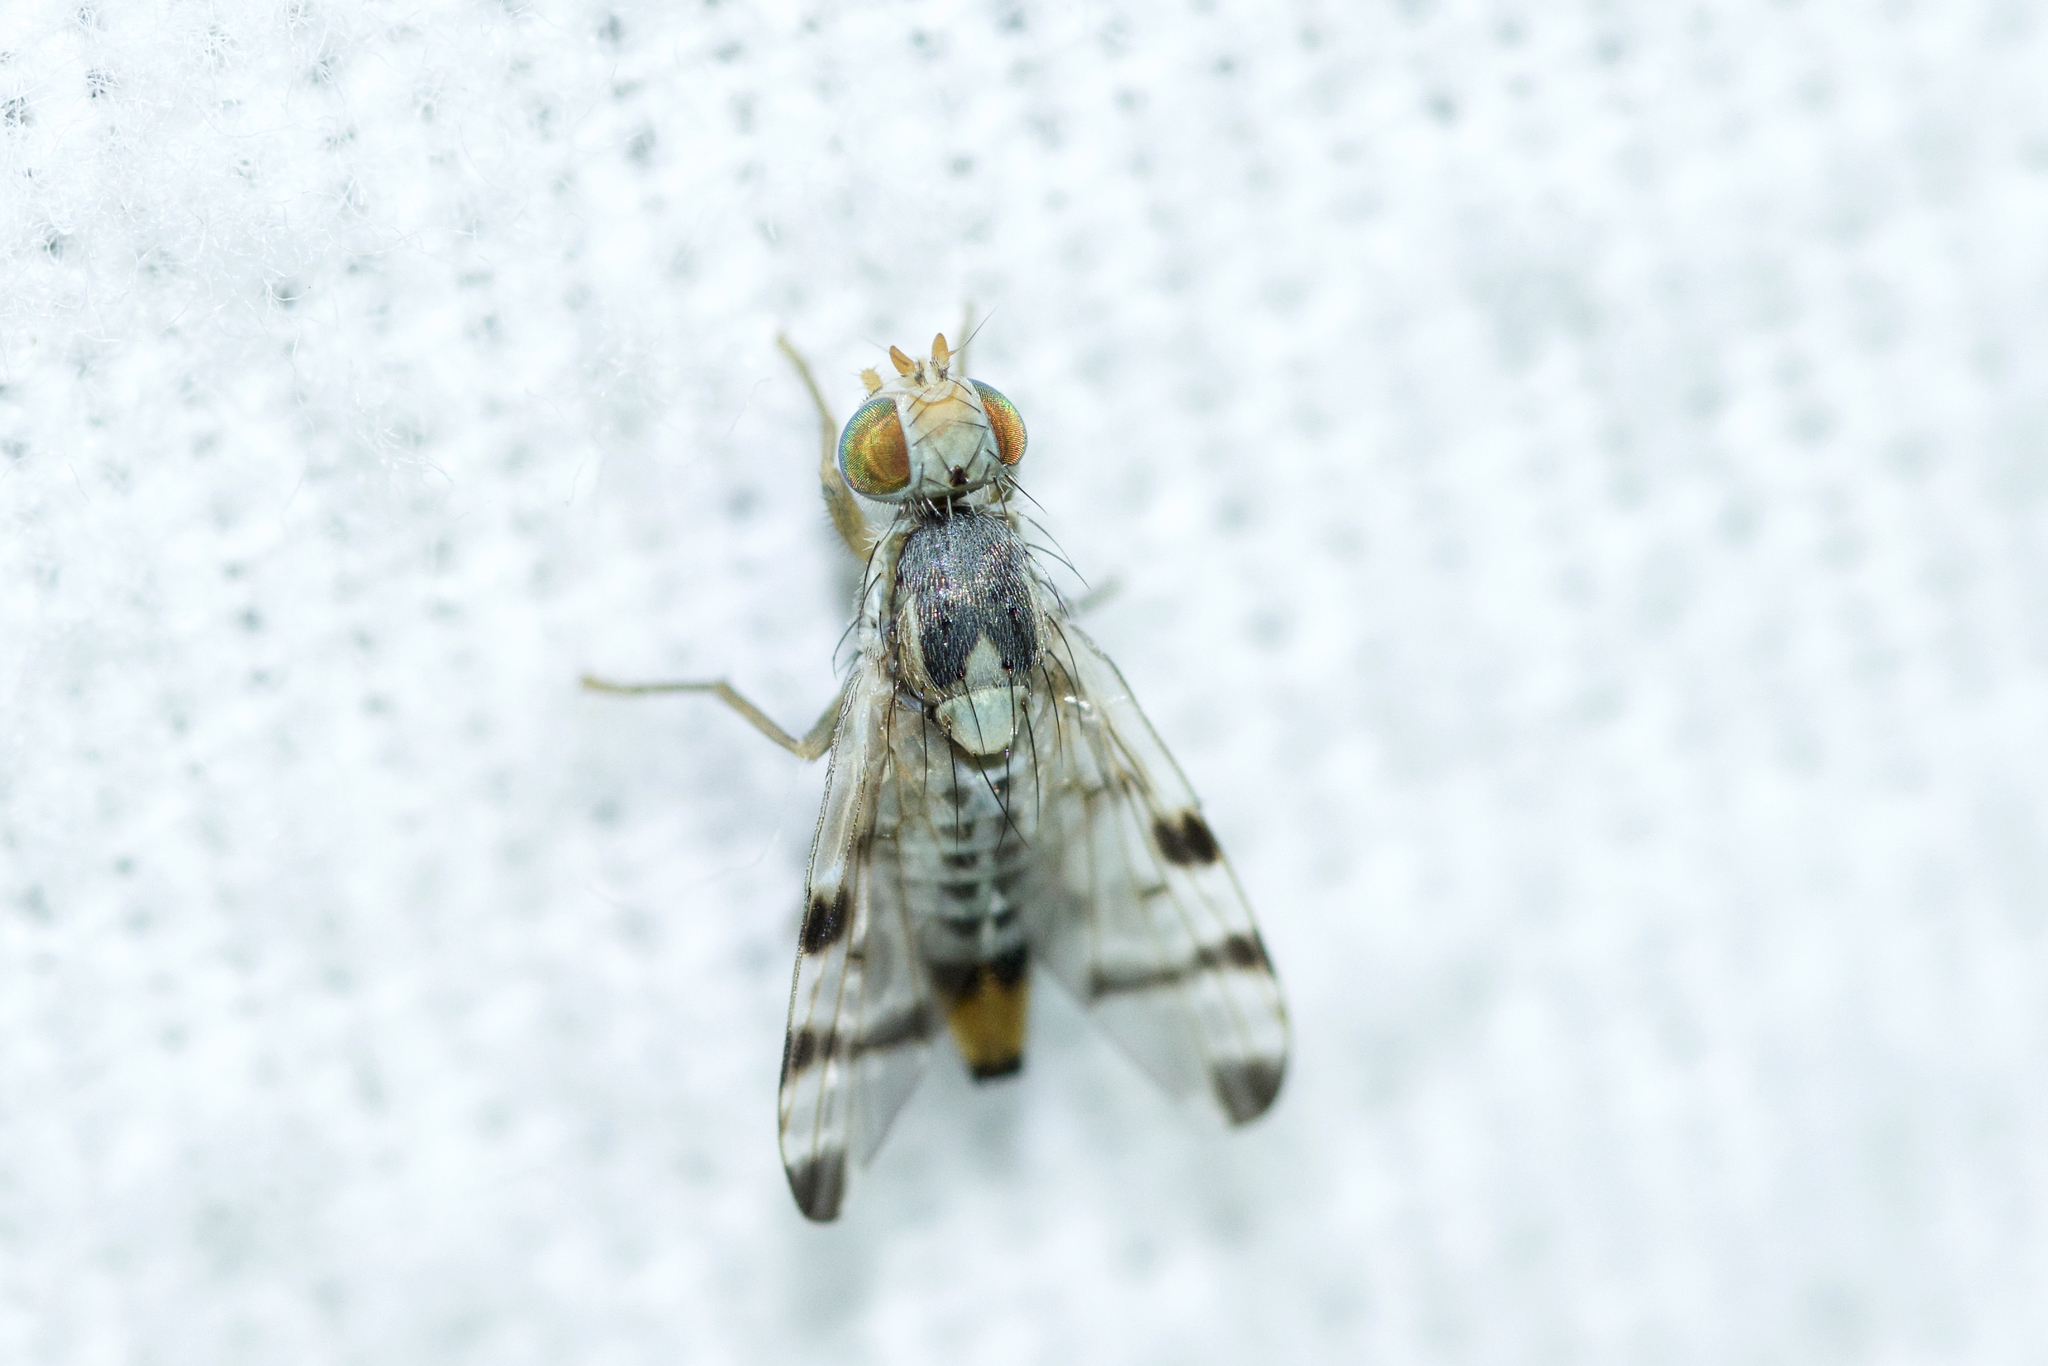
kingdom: Animalia
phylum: Arthropoda
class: Insecta
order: Diptera
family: Tephritidae
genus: Terellia
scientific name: Terellia ruficauda
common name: Root-maggot fly
